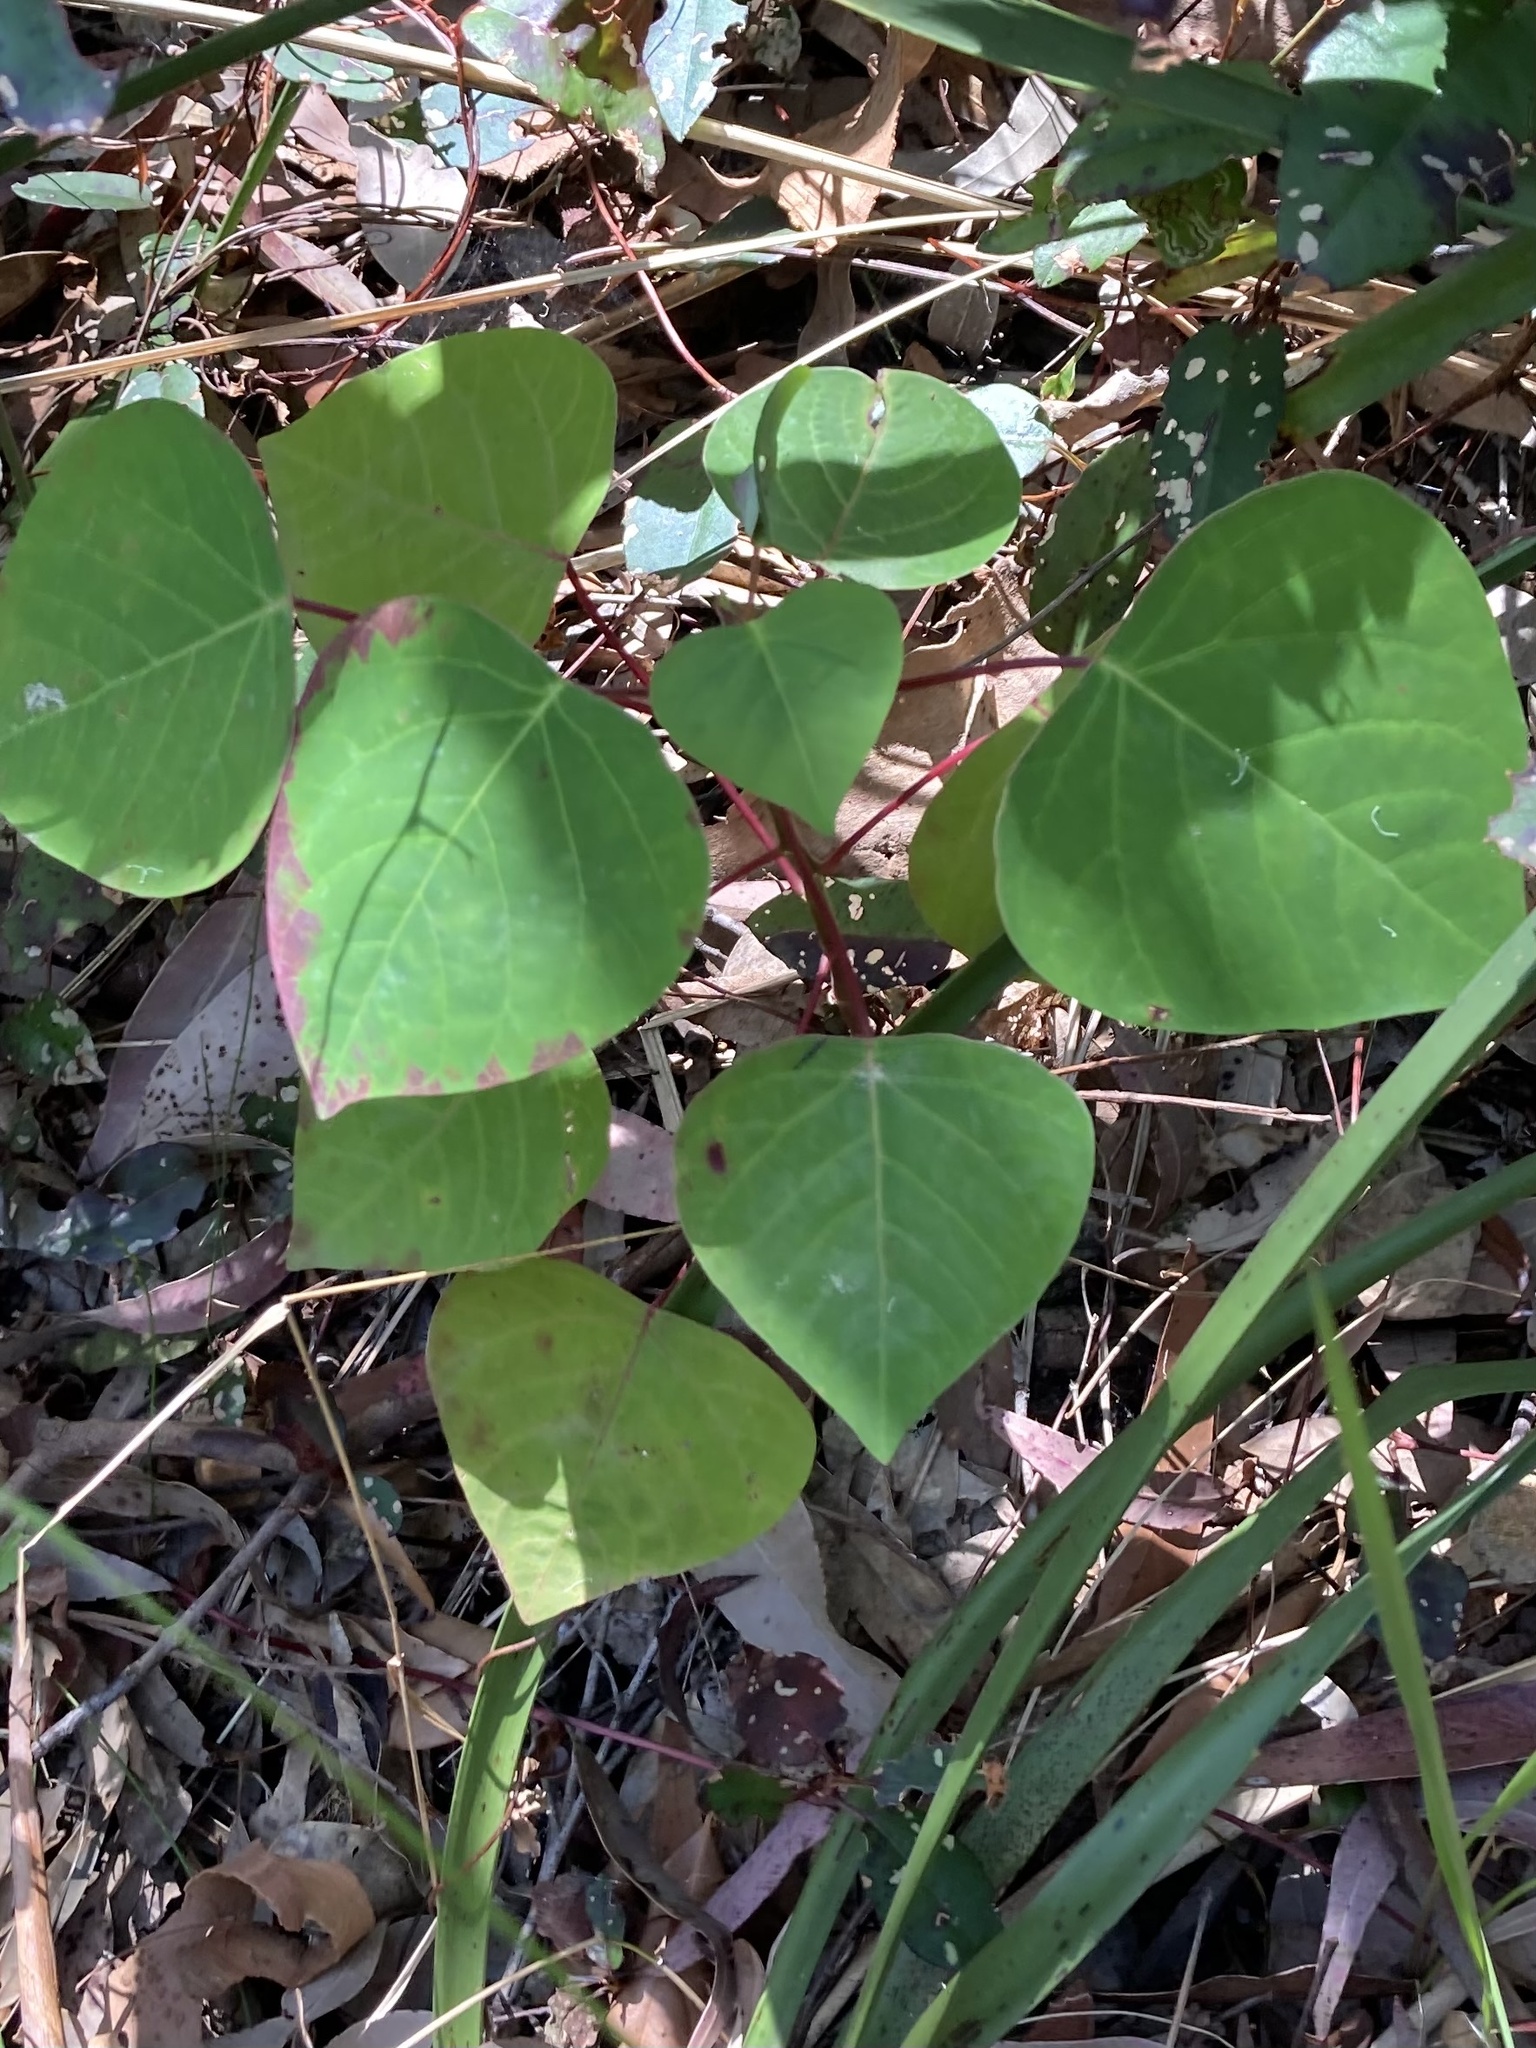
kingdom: Plantae
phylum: Tracheophyta
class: Magnoliopsida
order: Malpighiales
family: Euphorbiaceae
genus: Homalanthus
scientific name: Homalanthus populifolius
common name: Queensland poplar
